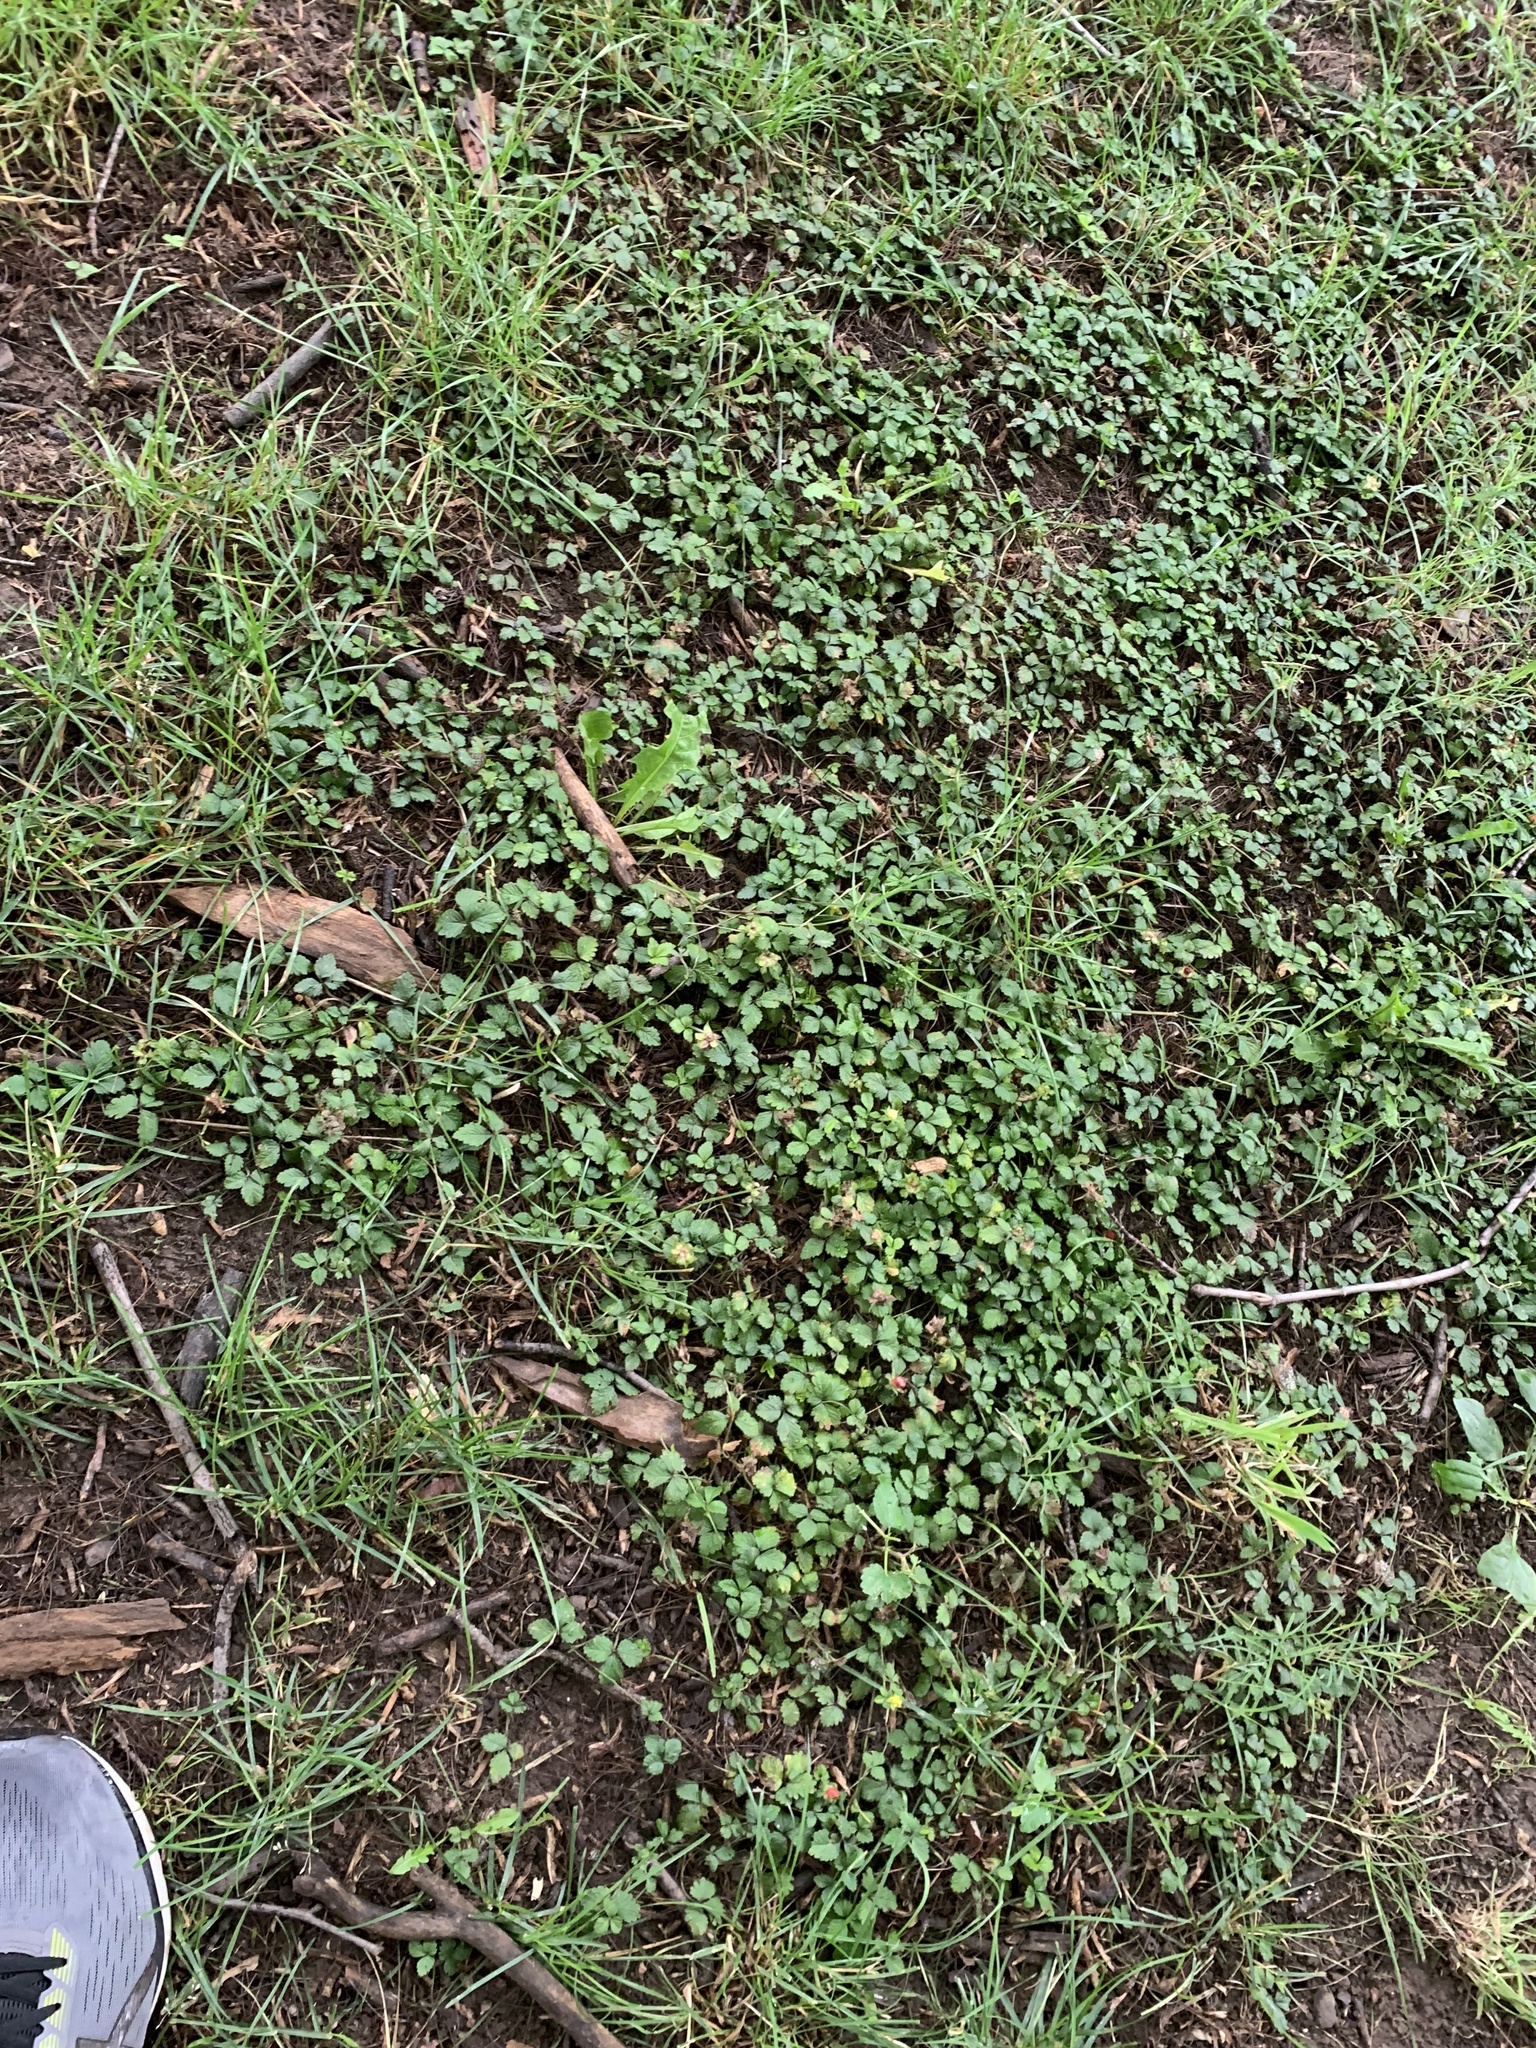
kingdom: Plantae
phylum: Tracheophyta
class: Magnoliopsida
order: Rosales
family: Rosaceae
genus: Potentilla
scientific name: Potentilla indica
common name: Yellow-flowered strawberry
